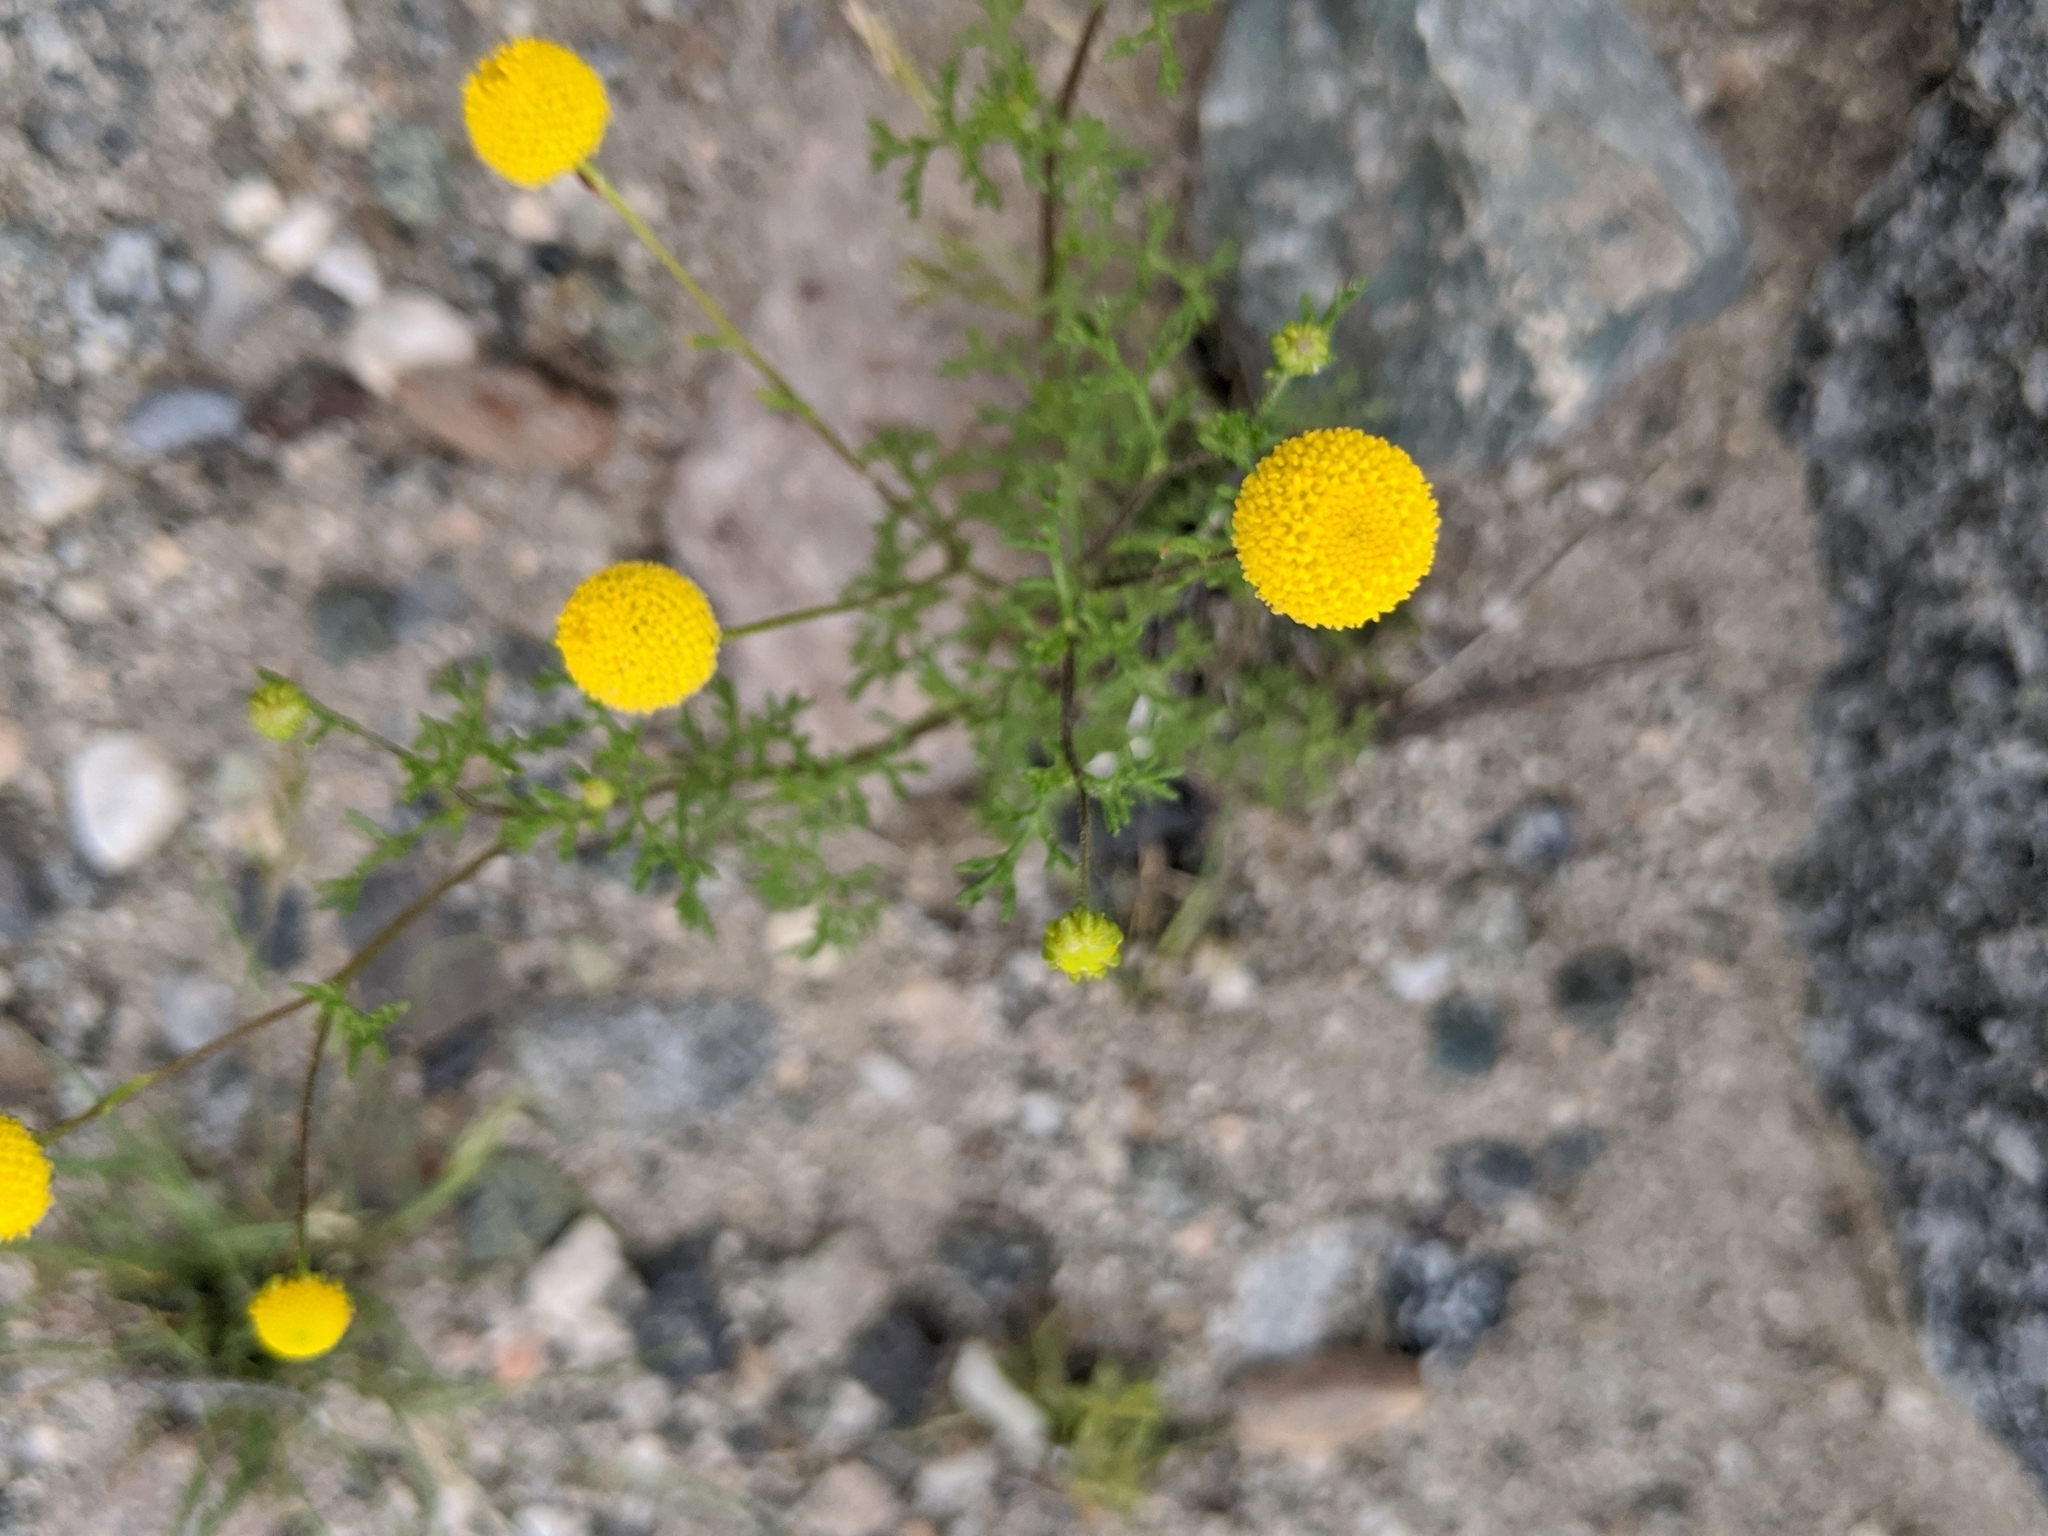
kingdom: Plantae
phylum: Tracheophyta
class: Magnoliopsida
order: Asterales
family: Asteraceae
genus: Oncosiphon
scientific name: Oncosiphon pilulifer
